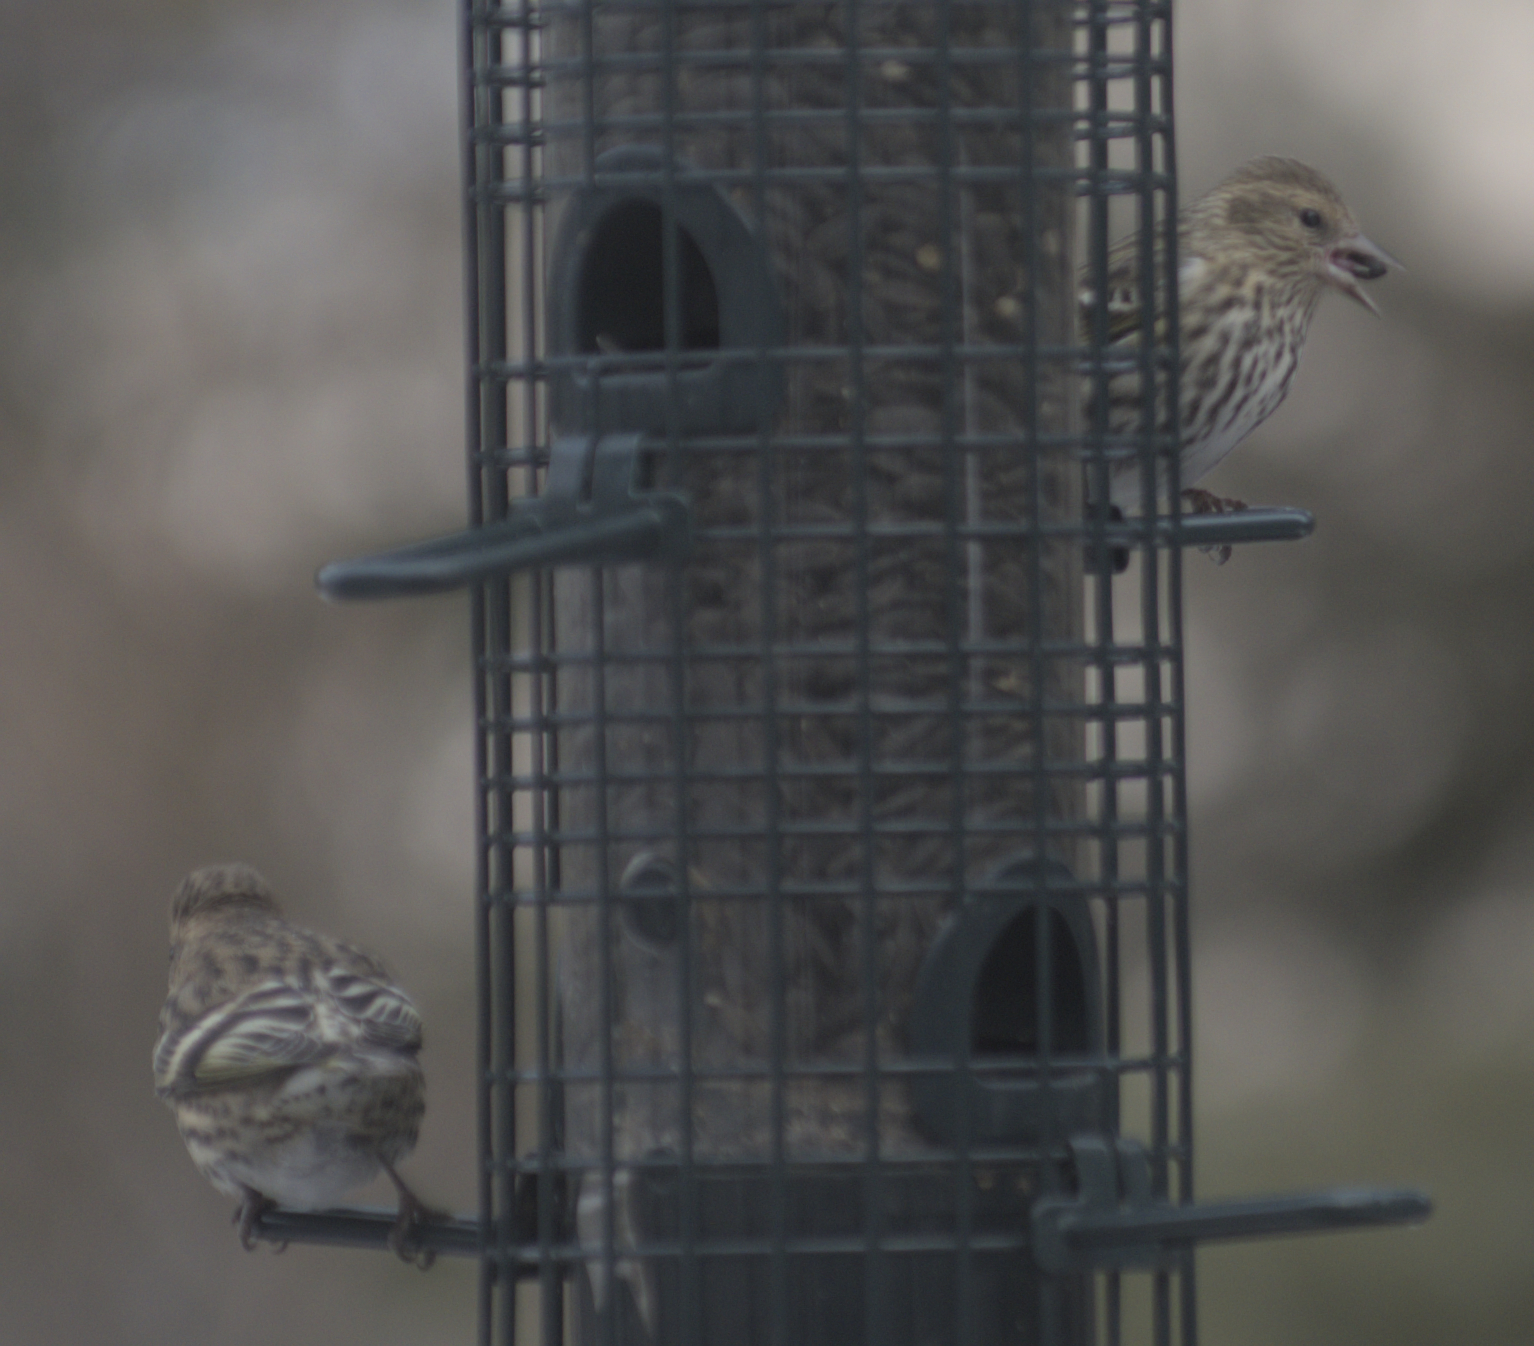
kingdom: Animalia
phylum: Chordata
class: Aves
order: Passeriformes
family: Fringillidae
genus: Spinus
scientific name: Spinus pinus
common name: Pine siskin
